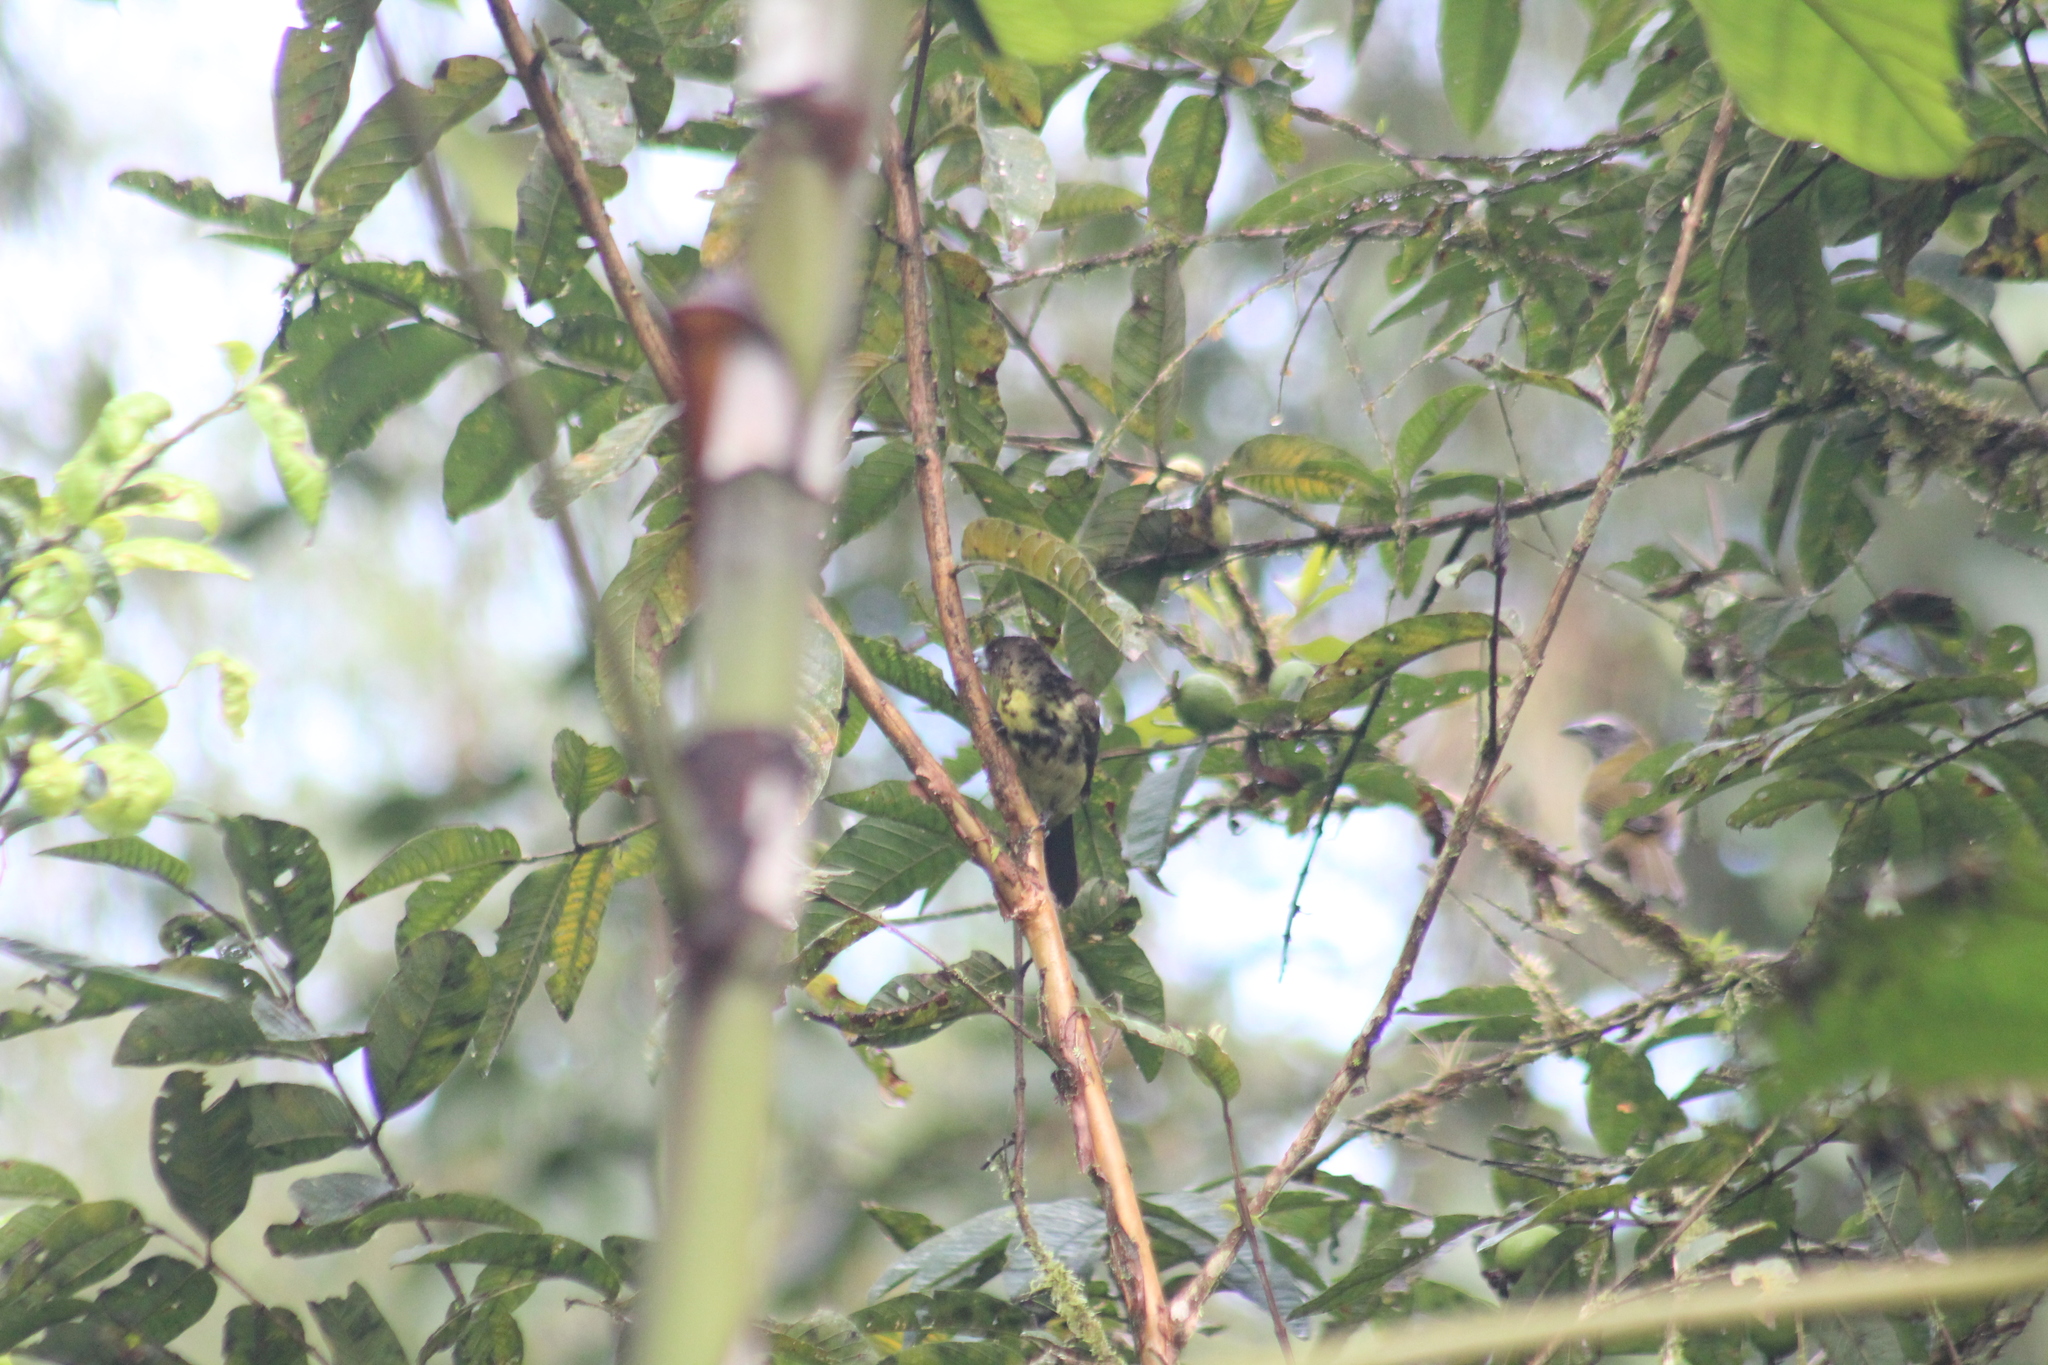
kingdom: Animalia
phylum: Chordata
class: Aves
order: Passeriformes
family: Thraupidae
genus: Ramphocelus
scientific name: Ramphocelus icteronotus
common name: Lemon-rumped tanager
